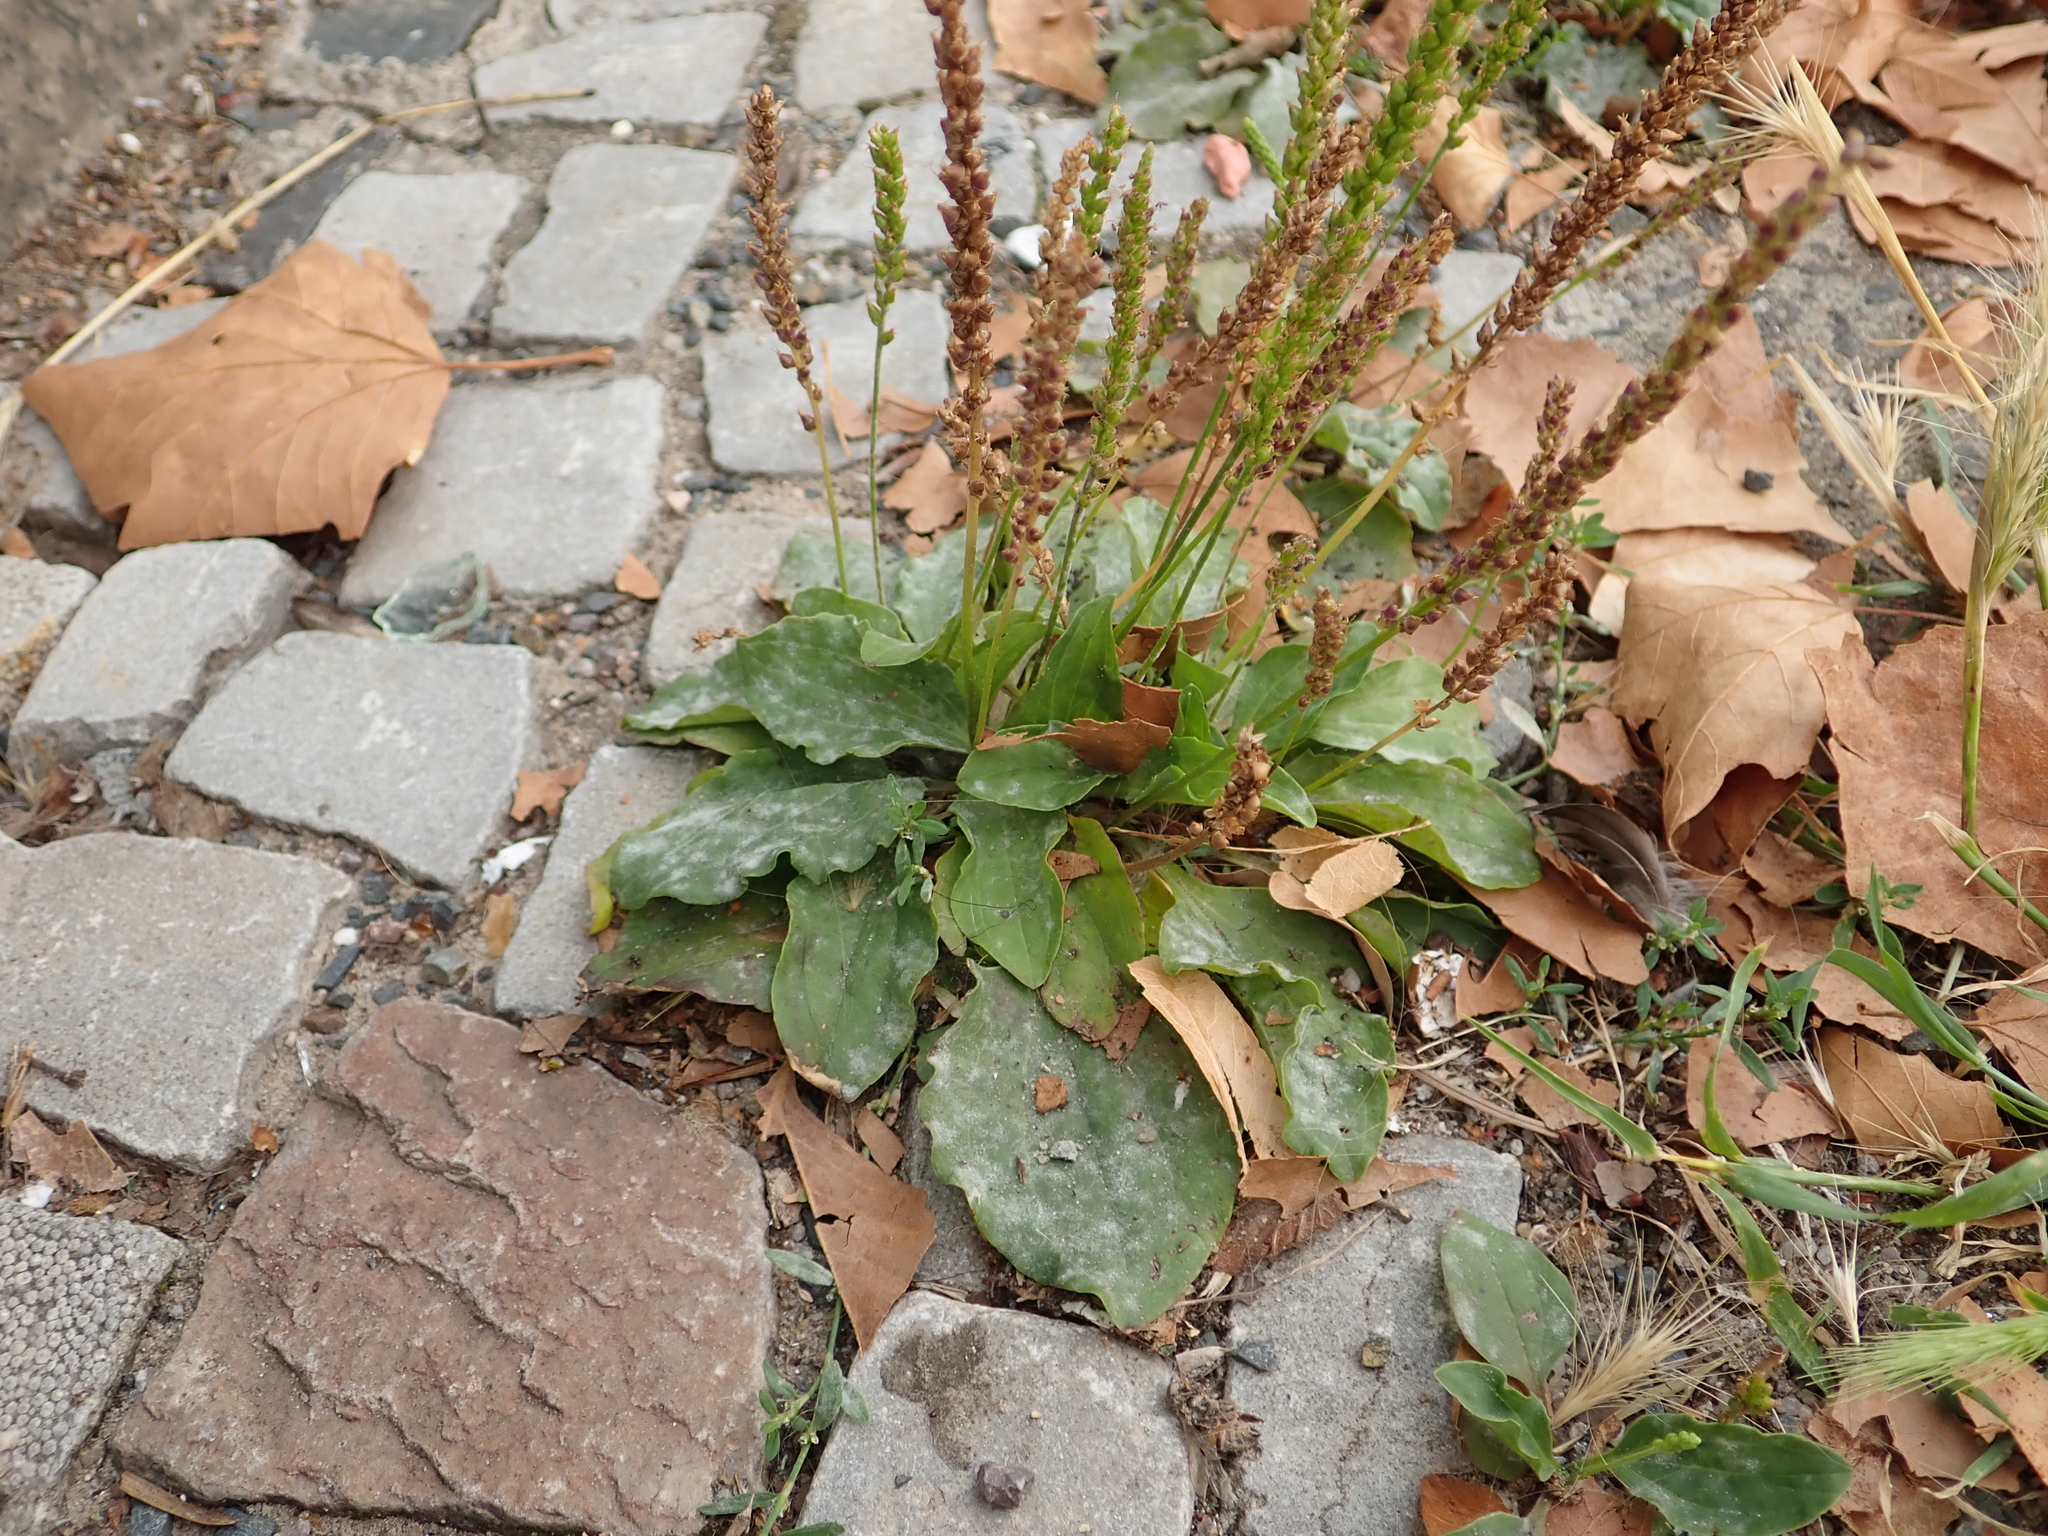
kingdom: Plantae
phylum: Tracheophyta
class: Magnoliopsida
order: Lamiales
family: Plantaginaceae
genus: Plantago
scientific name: Plantago major
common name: Common plantain
